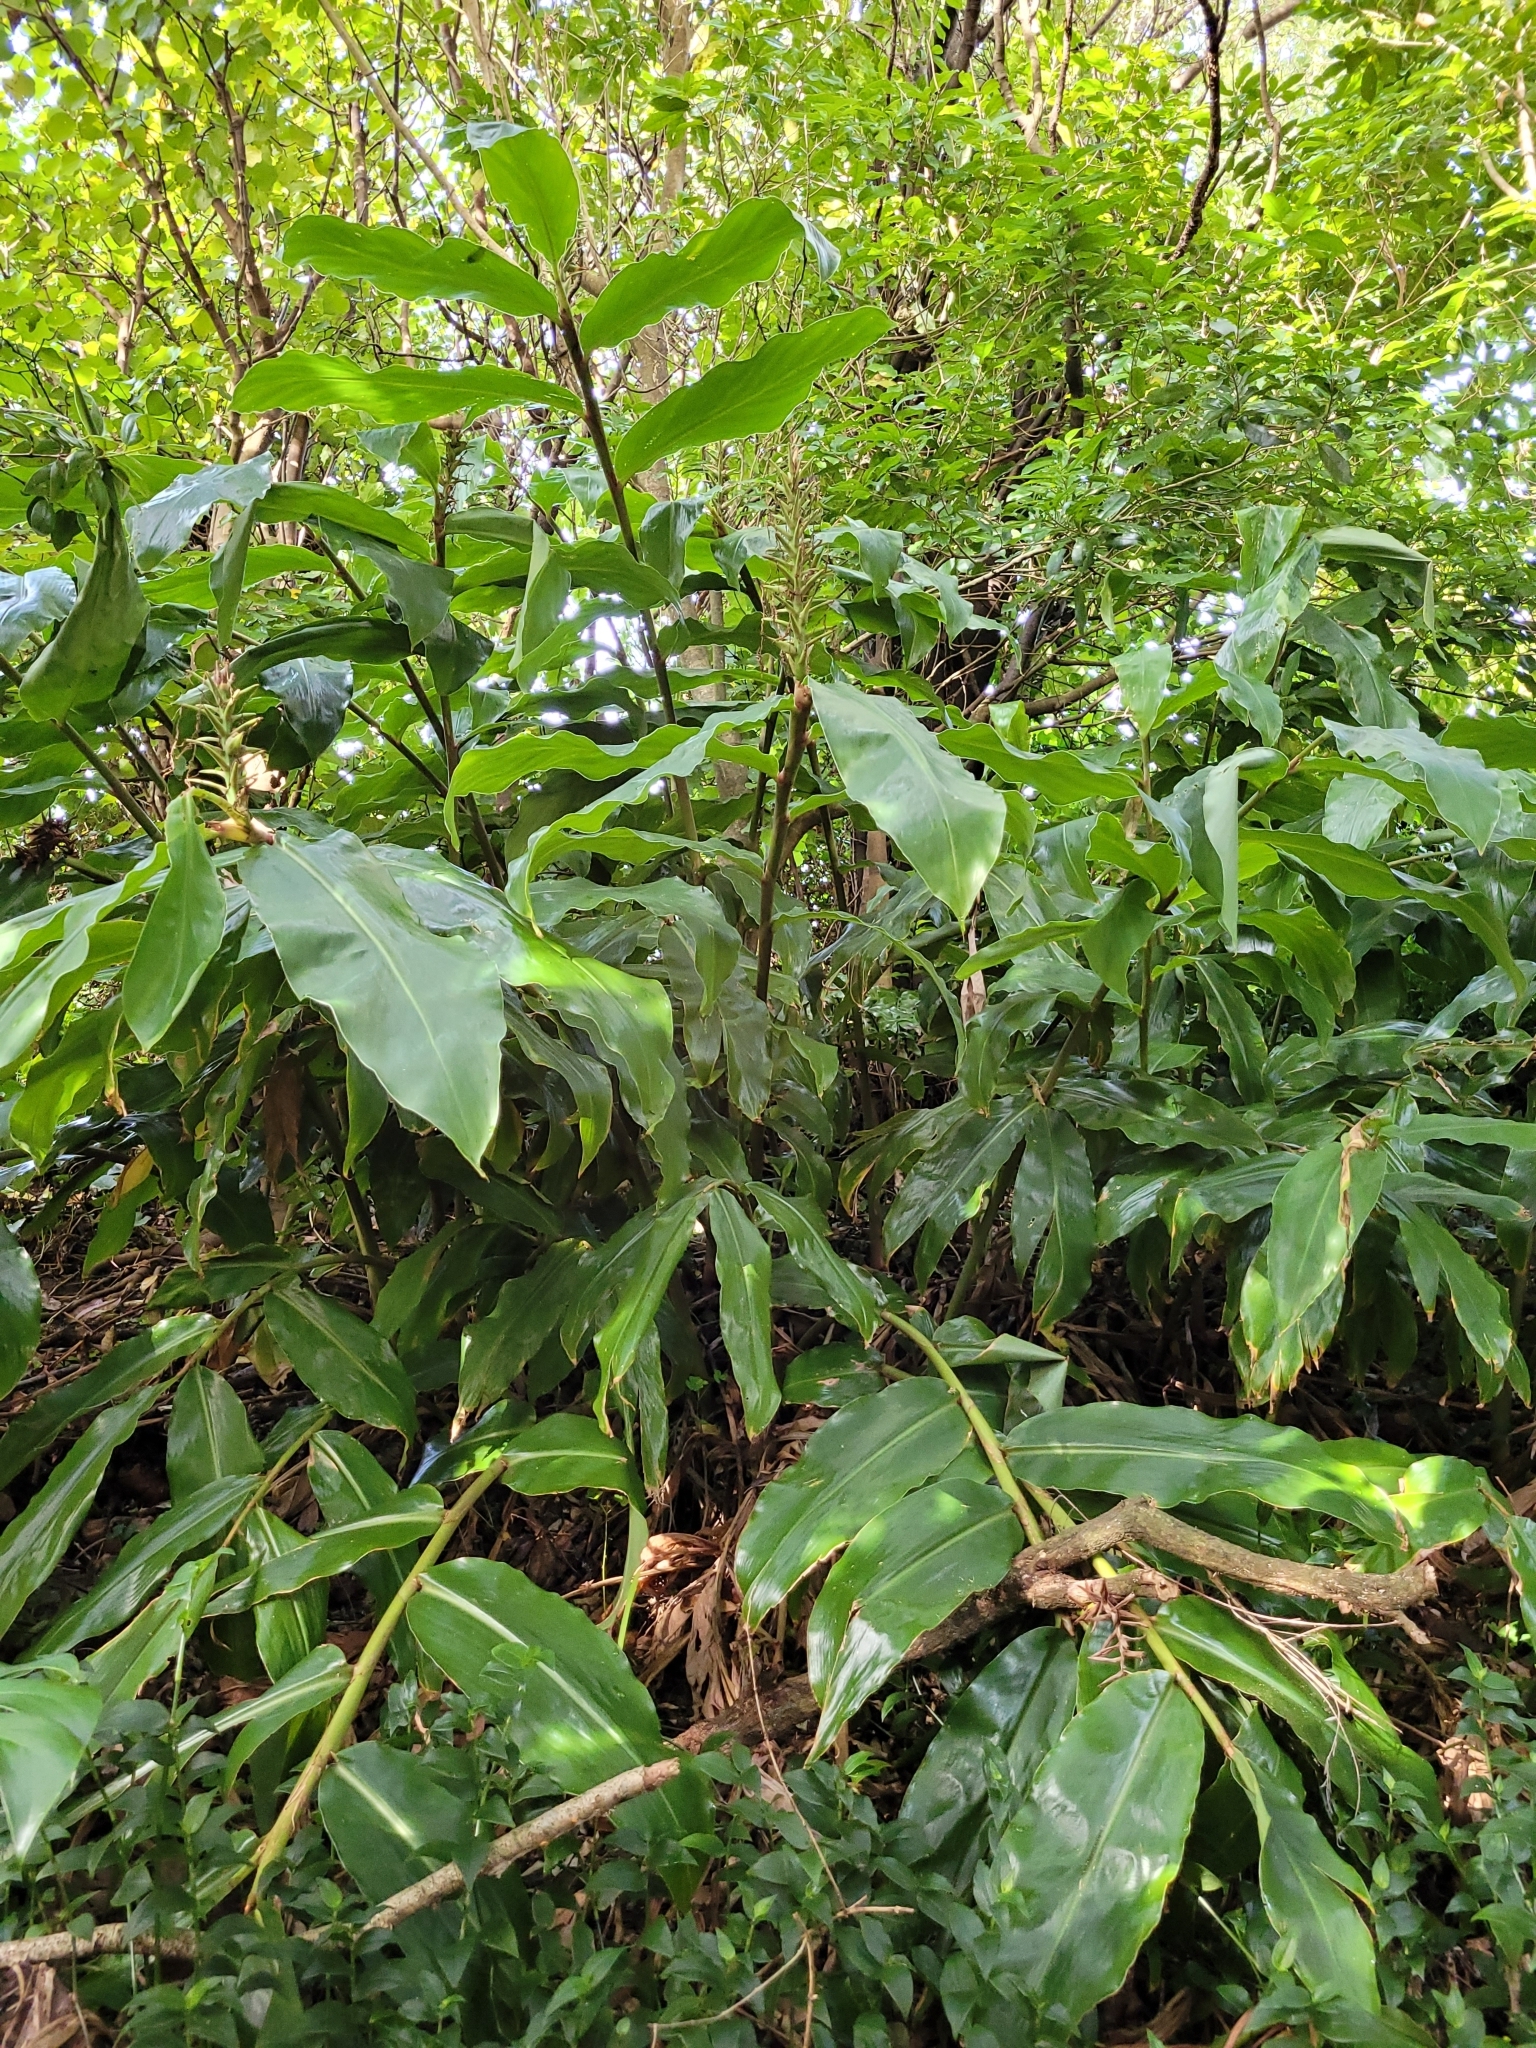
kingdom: Plantae
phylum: Tracheophyta
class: Liliopsida
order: Zingiberales
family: Zingiberaceae
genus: Hedychium
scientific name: Hedychium gardnerianum
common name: Himalayan ginger
